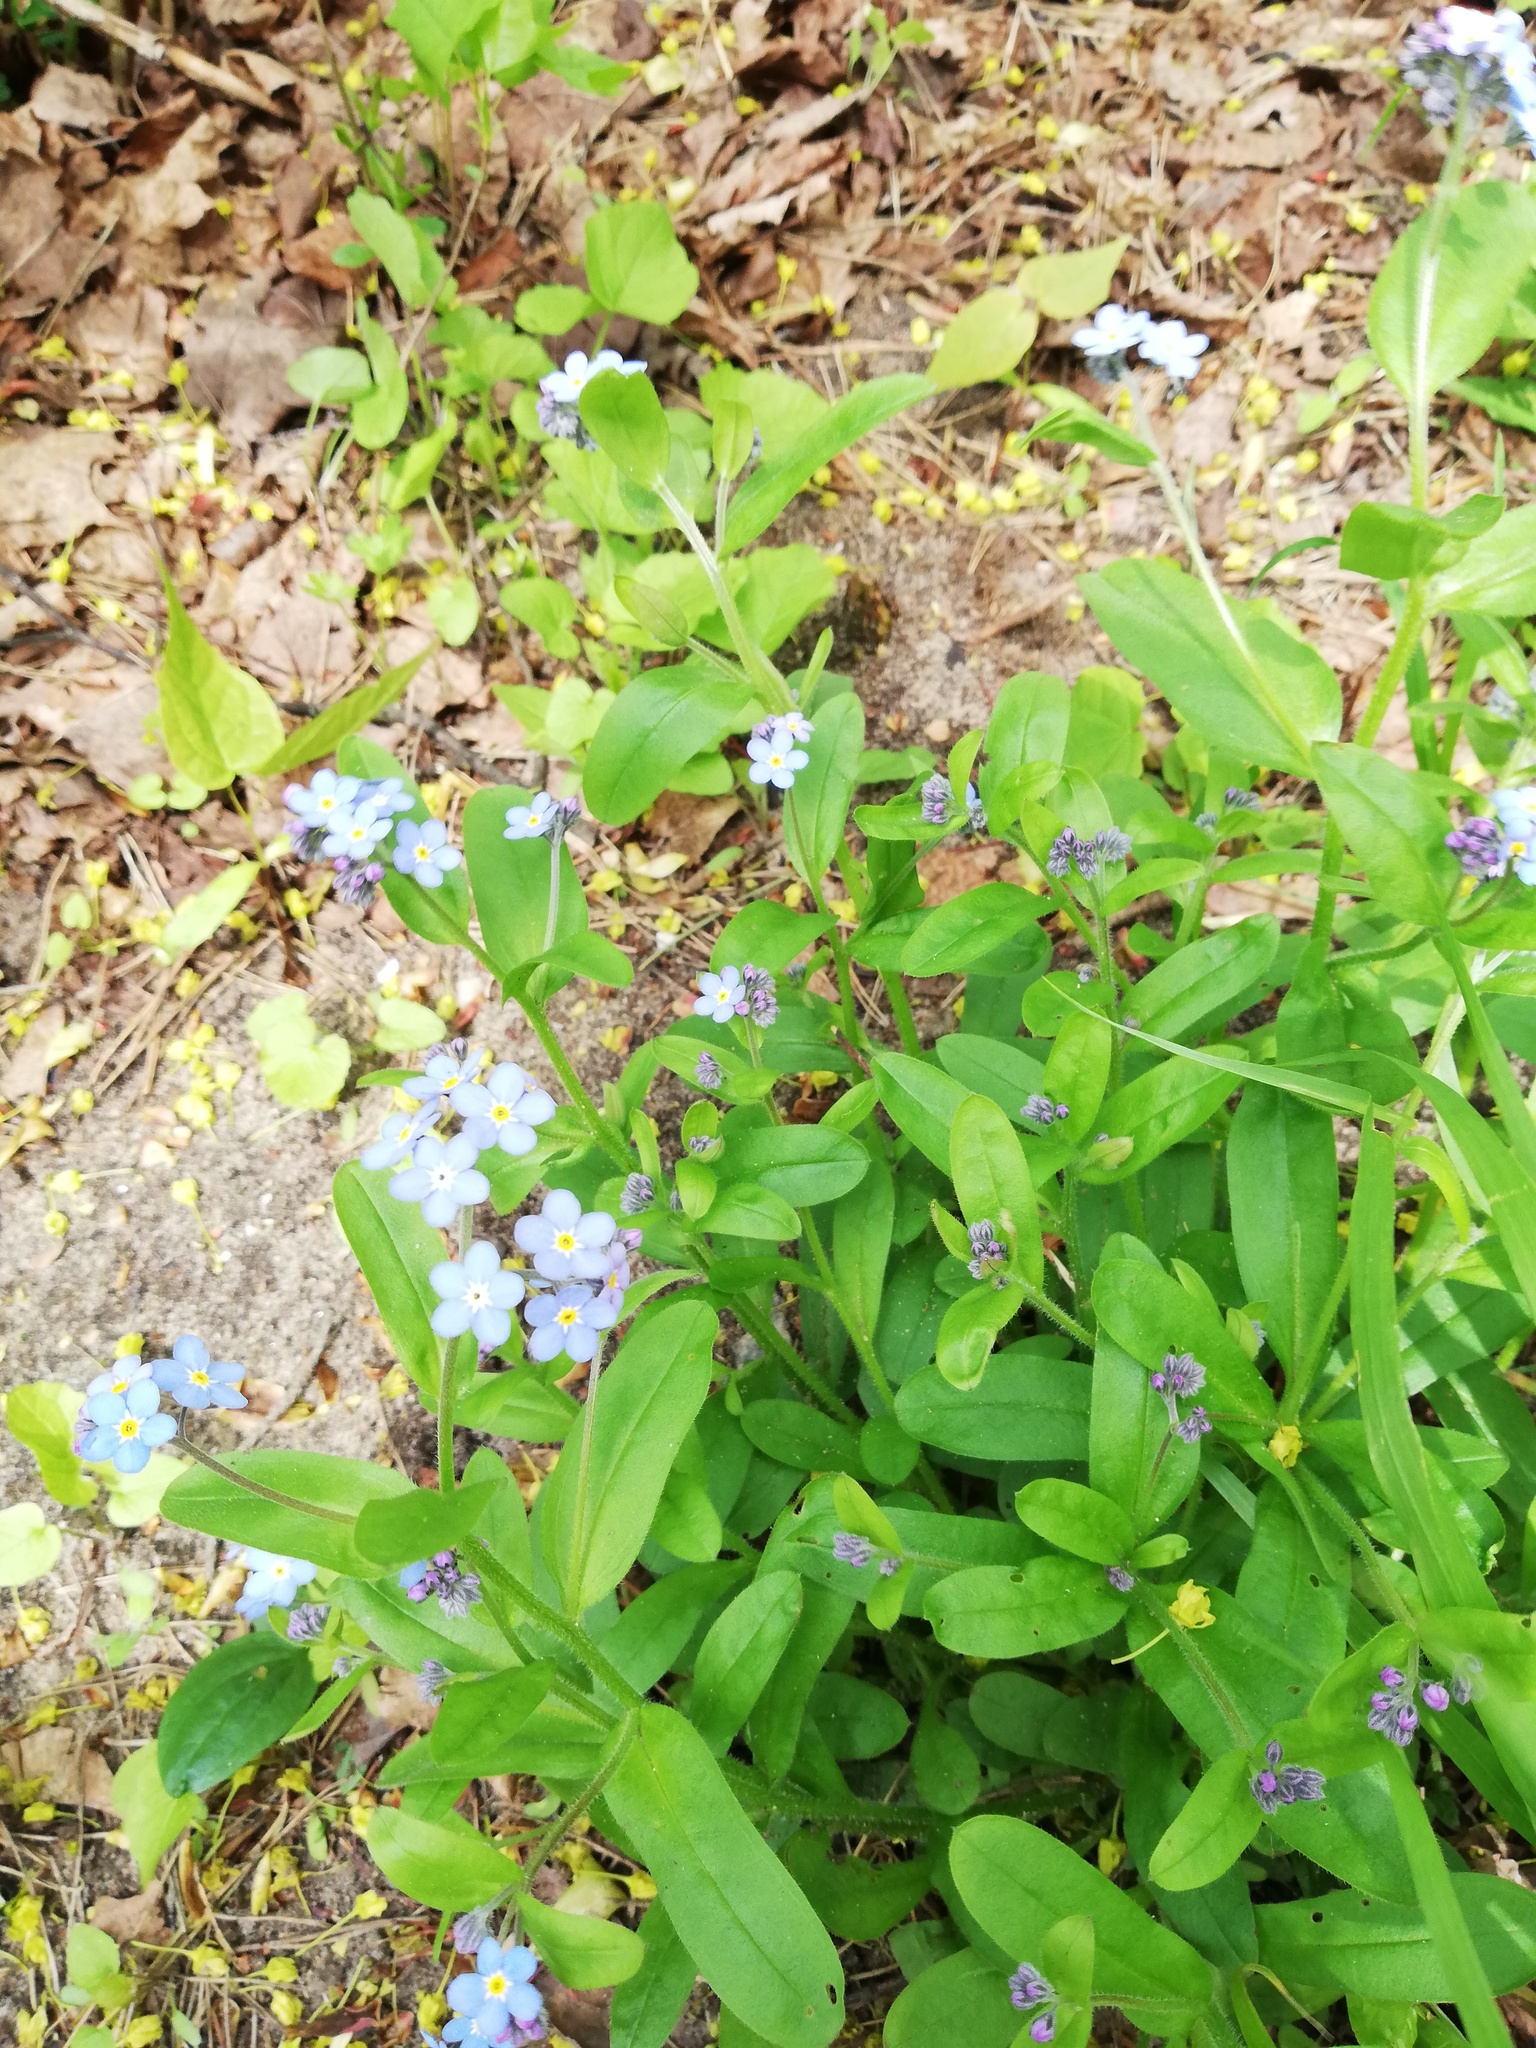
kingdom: Plantae
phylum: Tracheophyta
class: Magnoliopsida
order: Boraginales
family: Boraginaceae
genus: Myosotis
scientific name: Myosotis sylvatica
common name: Wood forget-me-not
